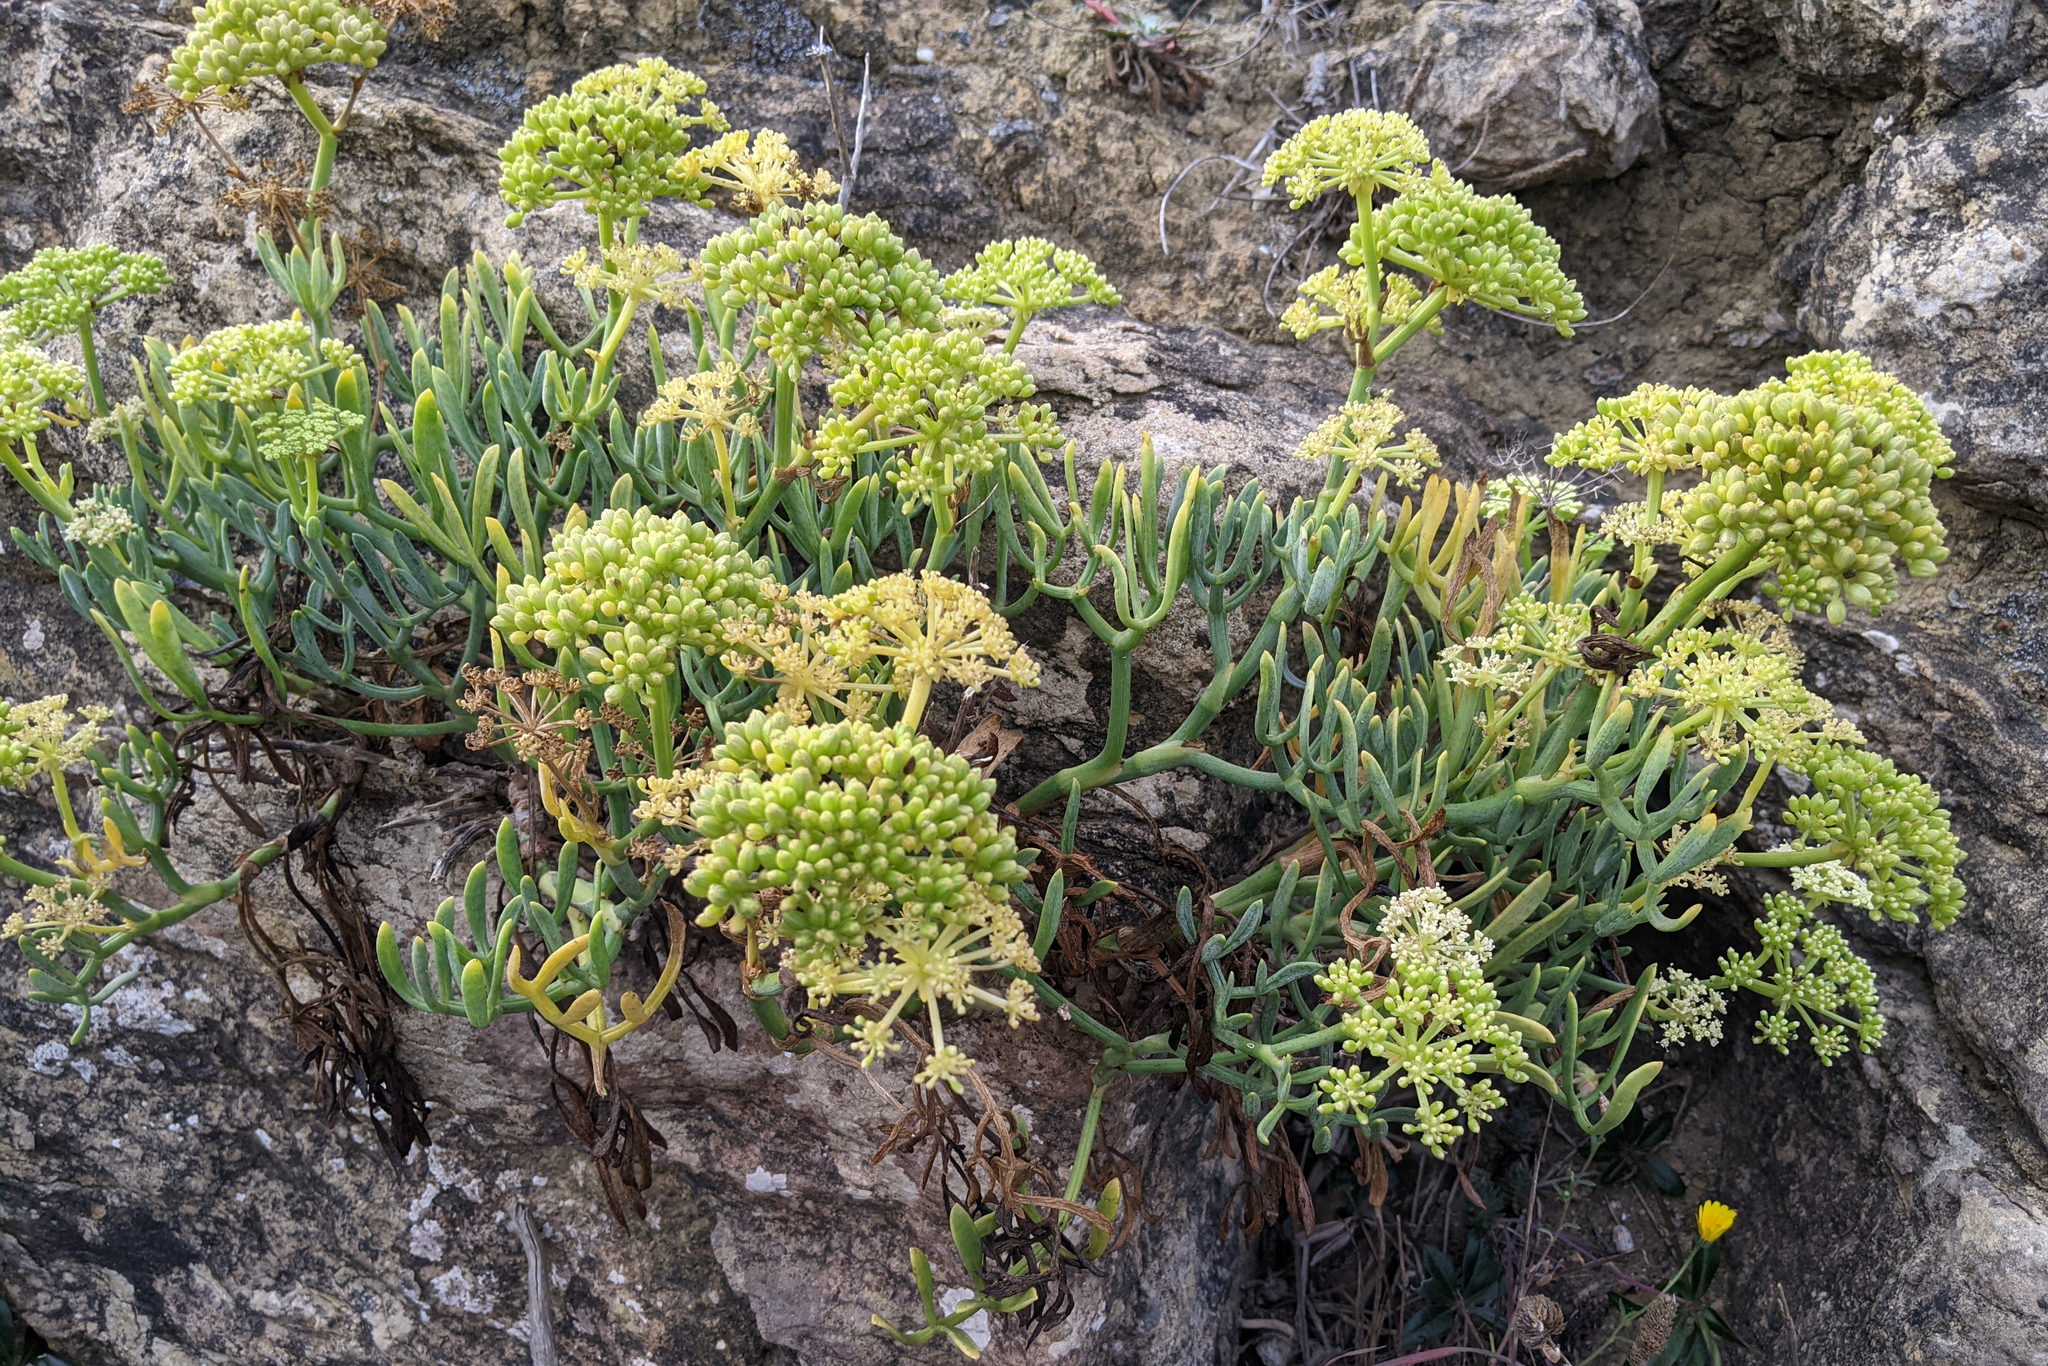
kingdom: Plantae
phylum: Tracheophyta
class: Magnoliopsida
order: Apiales
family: Apiaceae
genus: Crithmum
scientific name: Crithmum maritimum
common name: Rock samphire
